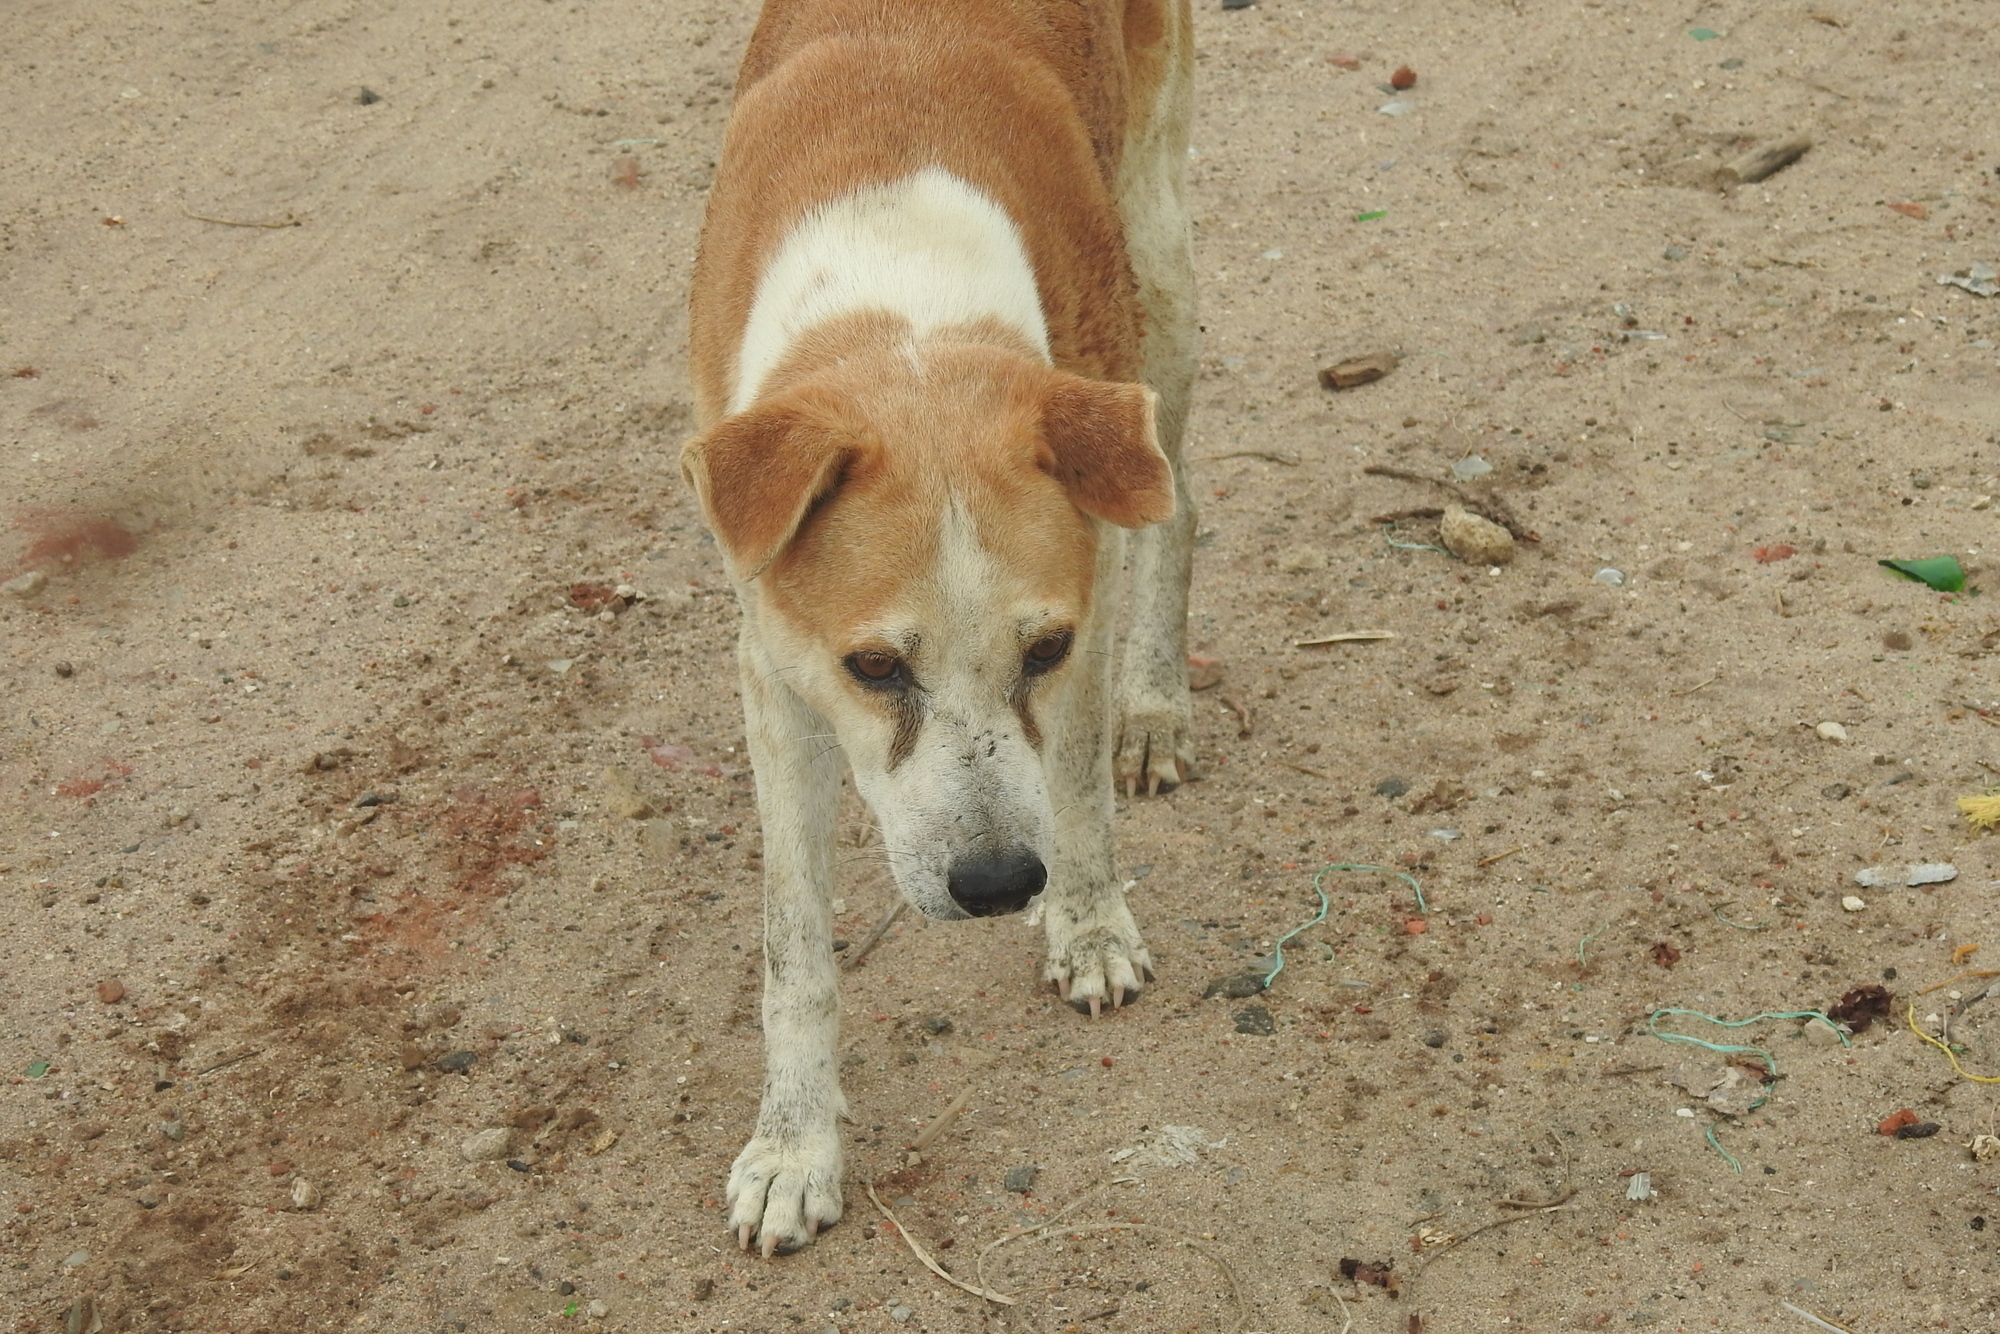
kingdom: Animalia
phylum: Chordata
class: Mammalia
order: Carnivora
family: Canidae
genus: Canis
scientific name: Canis lupus
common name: Gray wolf
